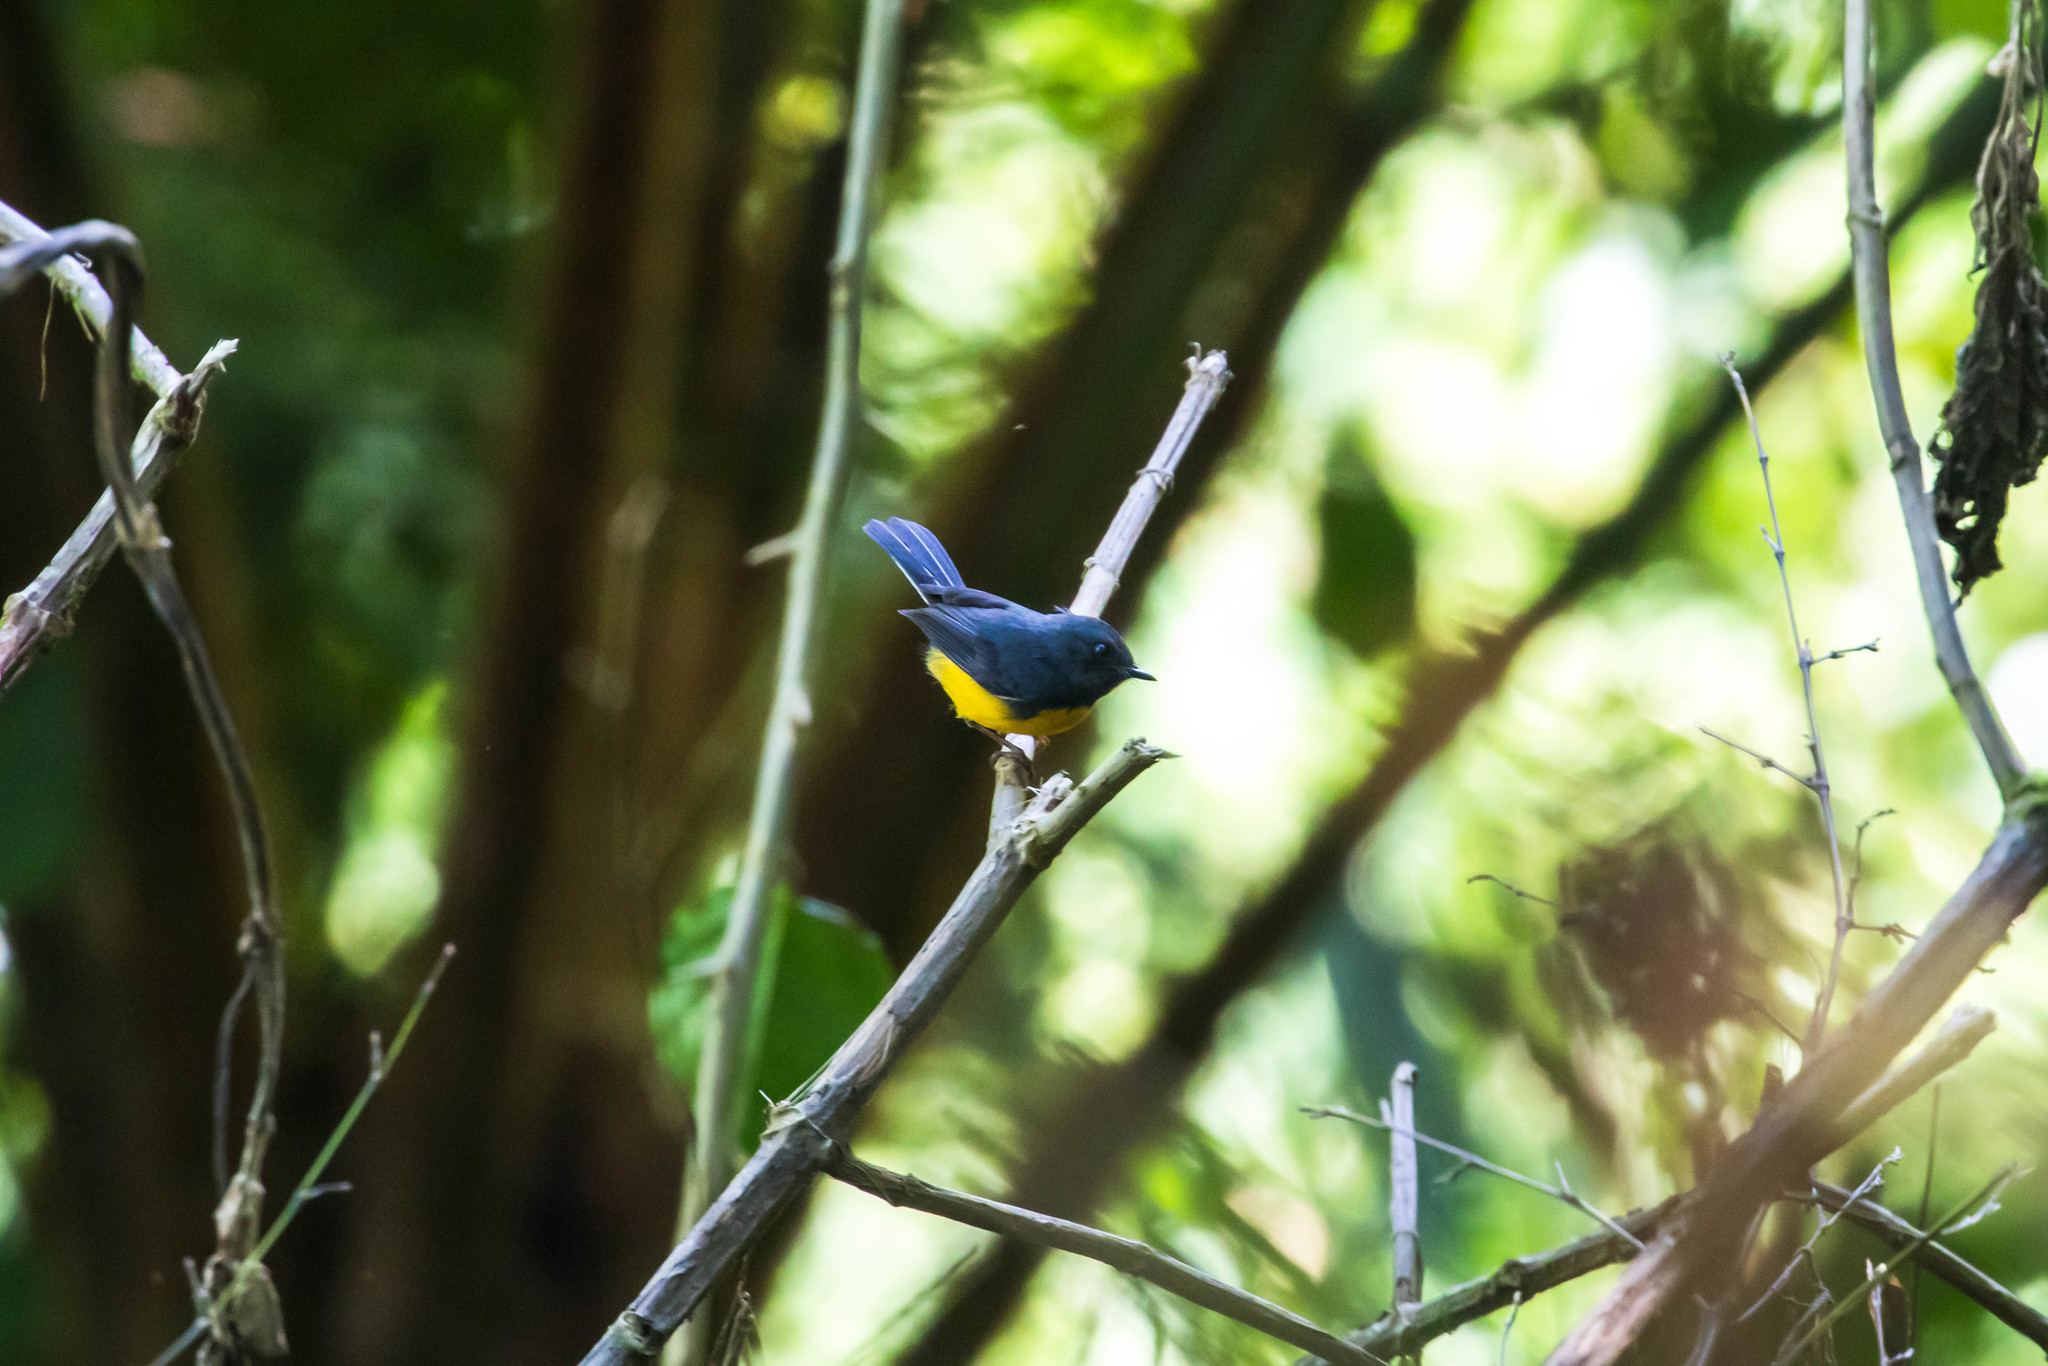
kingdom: Animalia
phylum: Chordata
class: Aves
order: Passeriformes
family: Parulidae
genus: Myioborus
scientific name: Myioborus miniatus
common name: Slate-throated redstart
